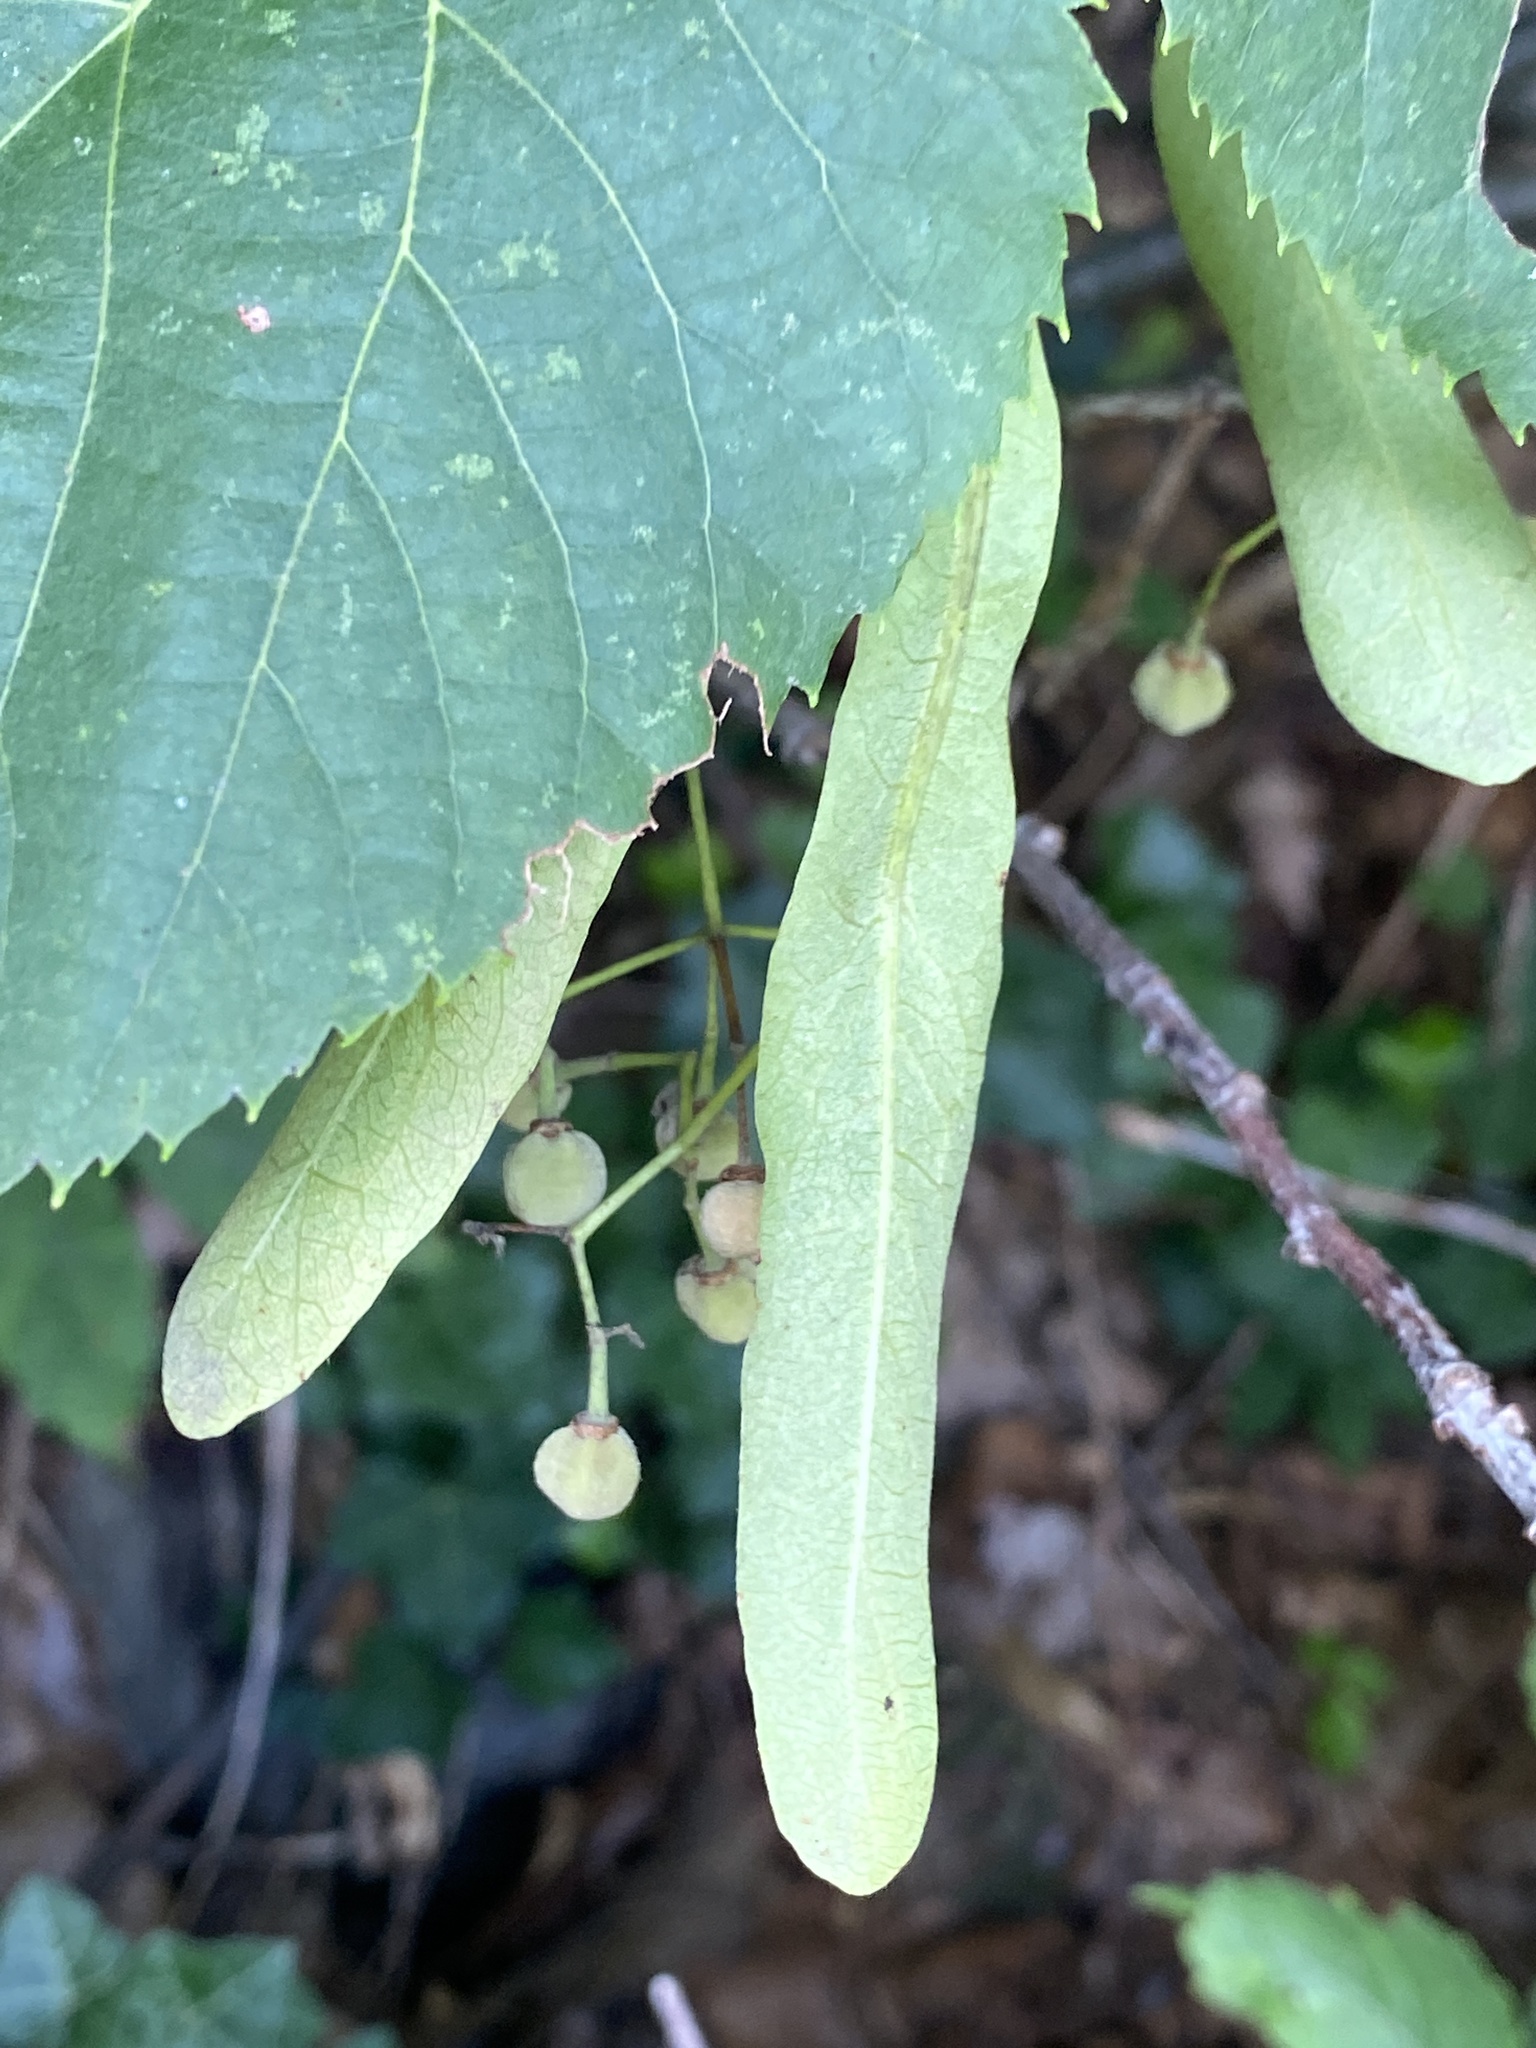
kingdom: Plantae
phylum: Tracheophyta
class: Magnoliopsida
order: Malvales
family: Malvaceae
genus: Tilia
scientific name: Tilia americana
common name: Basswood
